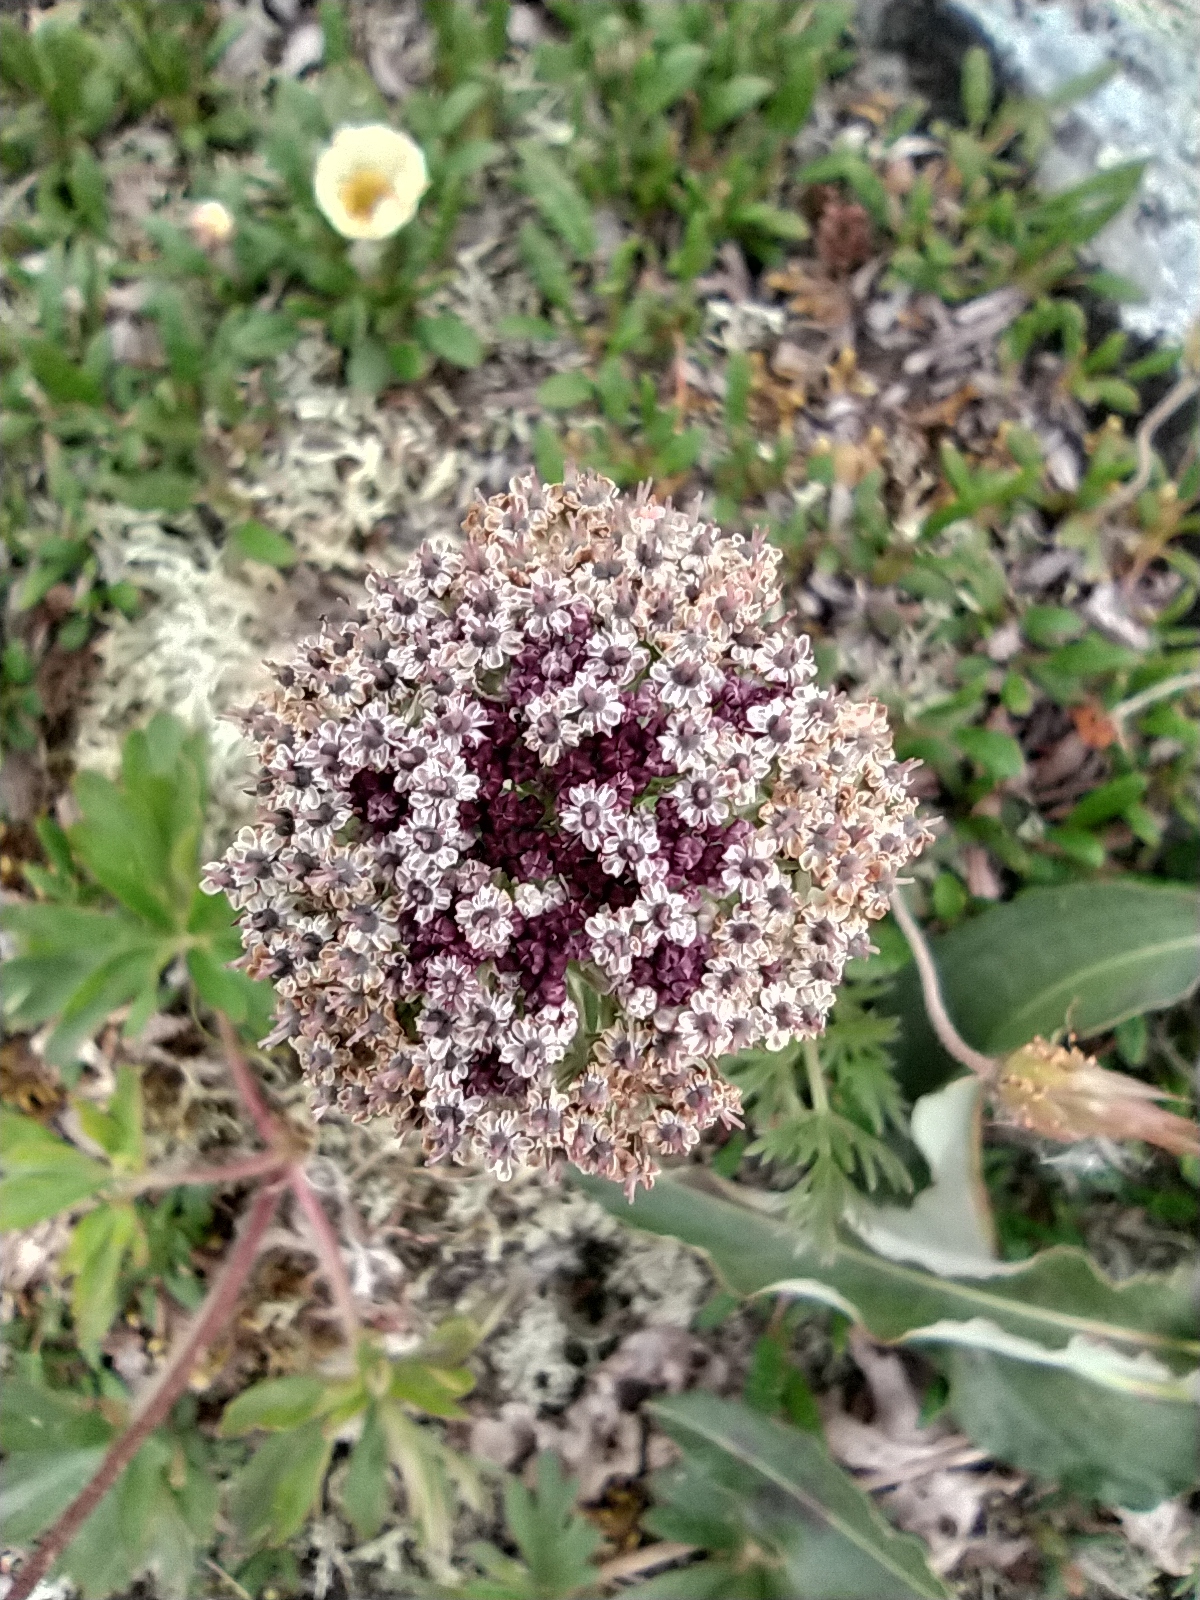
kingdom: Plantae
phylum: Tracheophyta
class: Magnoliopsida
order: Apiales
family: Apiaceae
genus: Pachypleurum
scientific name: Pachypleurum mutellinoides
